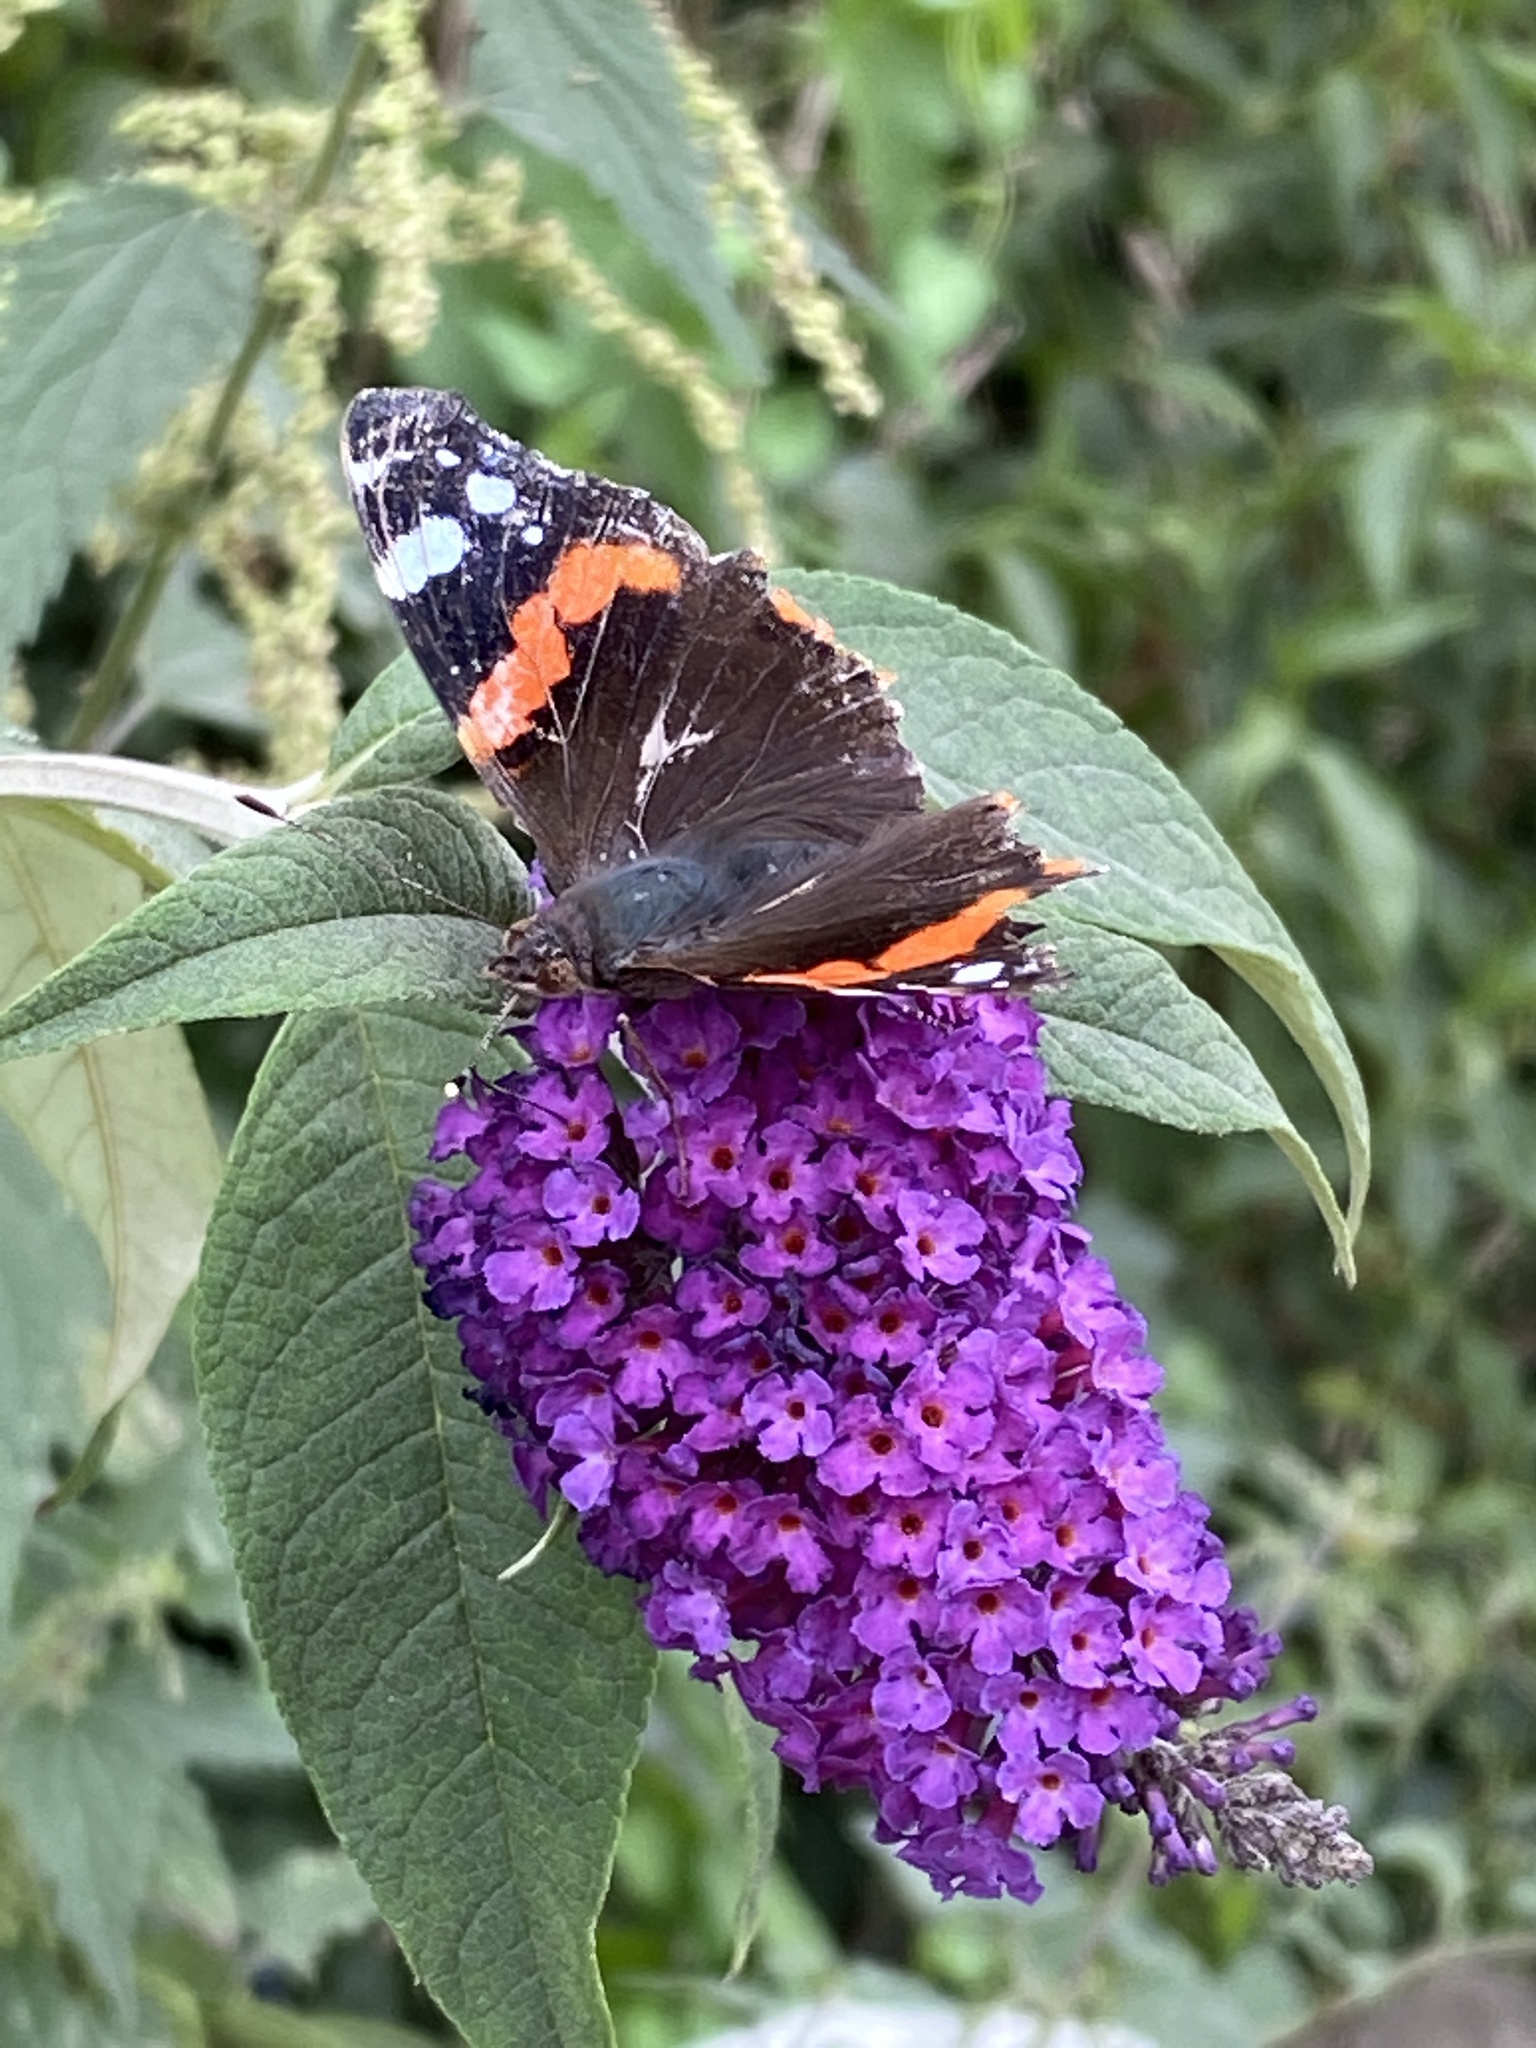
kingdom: Animalia
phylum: Arthropoda
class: Insecta
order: Lepidoptera
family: Nymphalidae
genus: Vanessa
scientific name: Vanessa atalanta
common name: Red admiral
